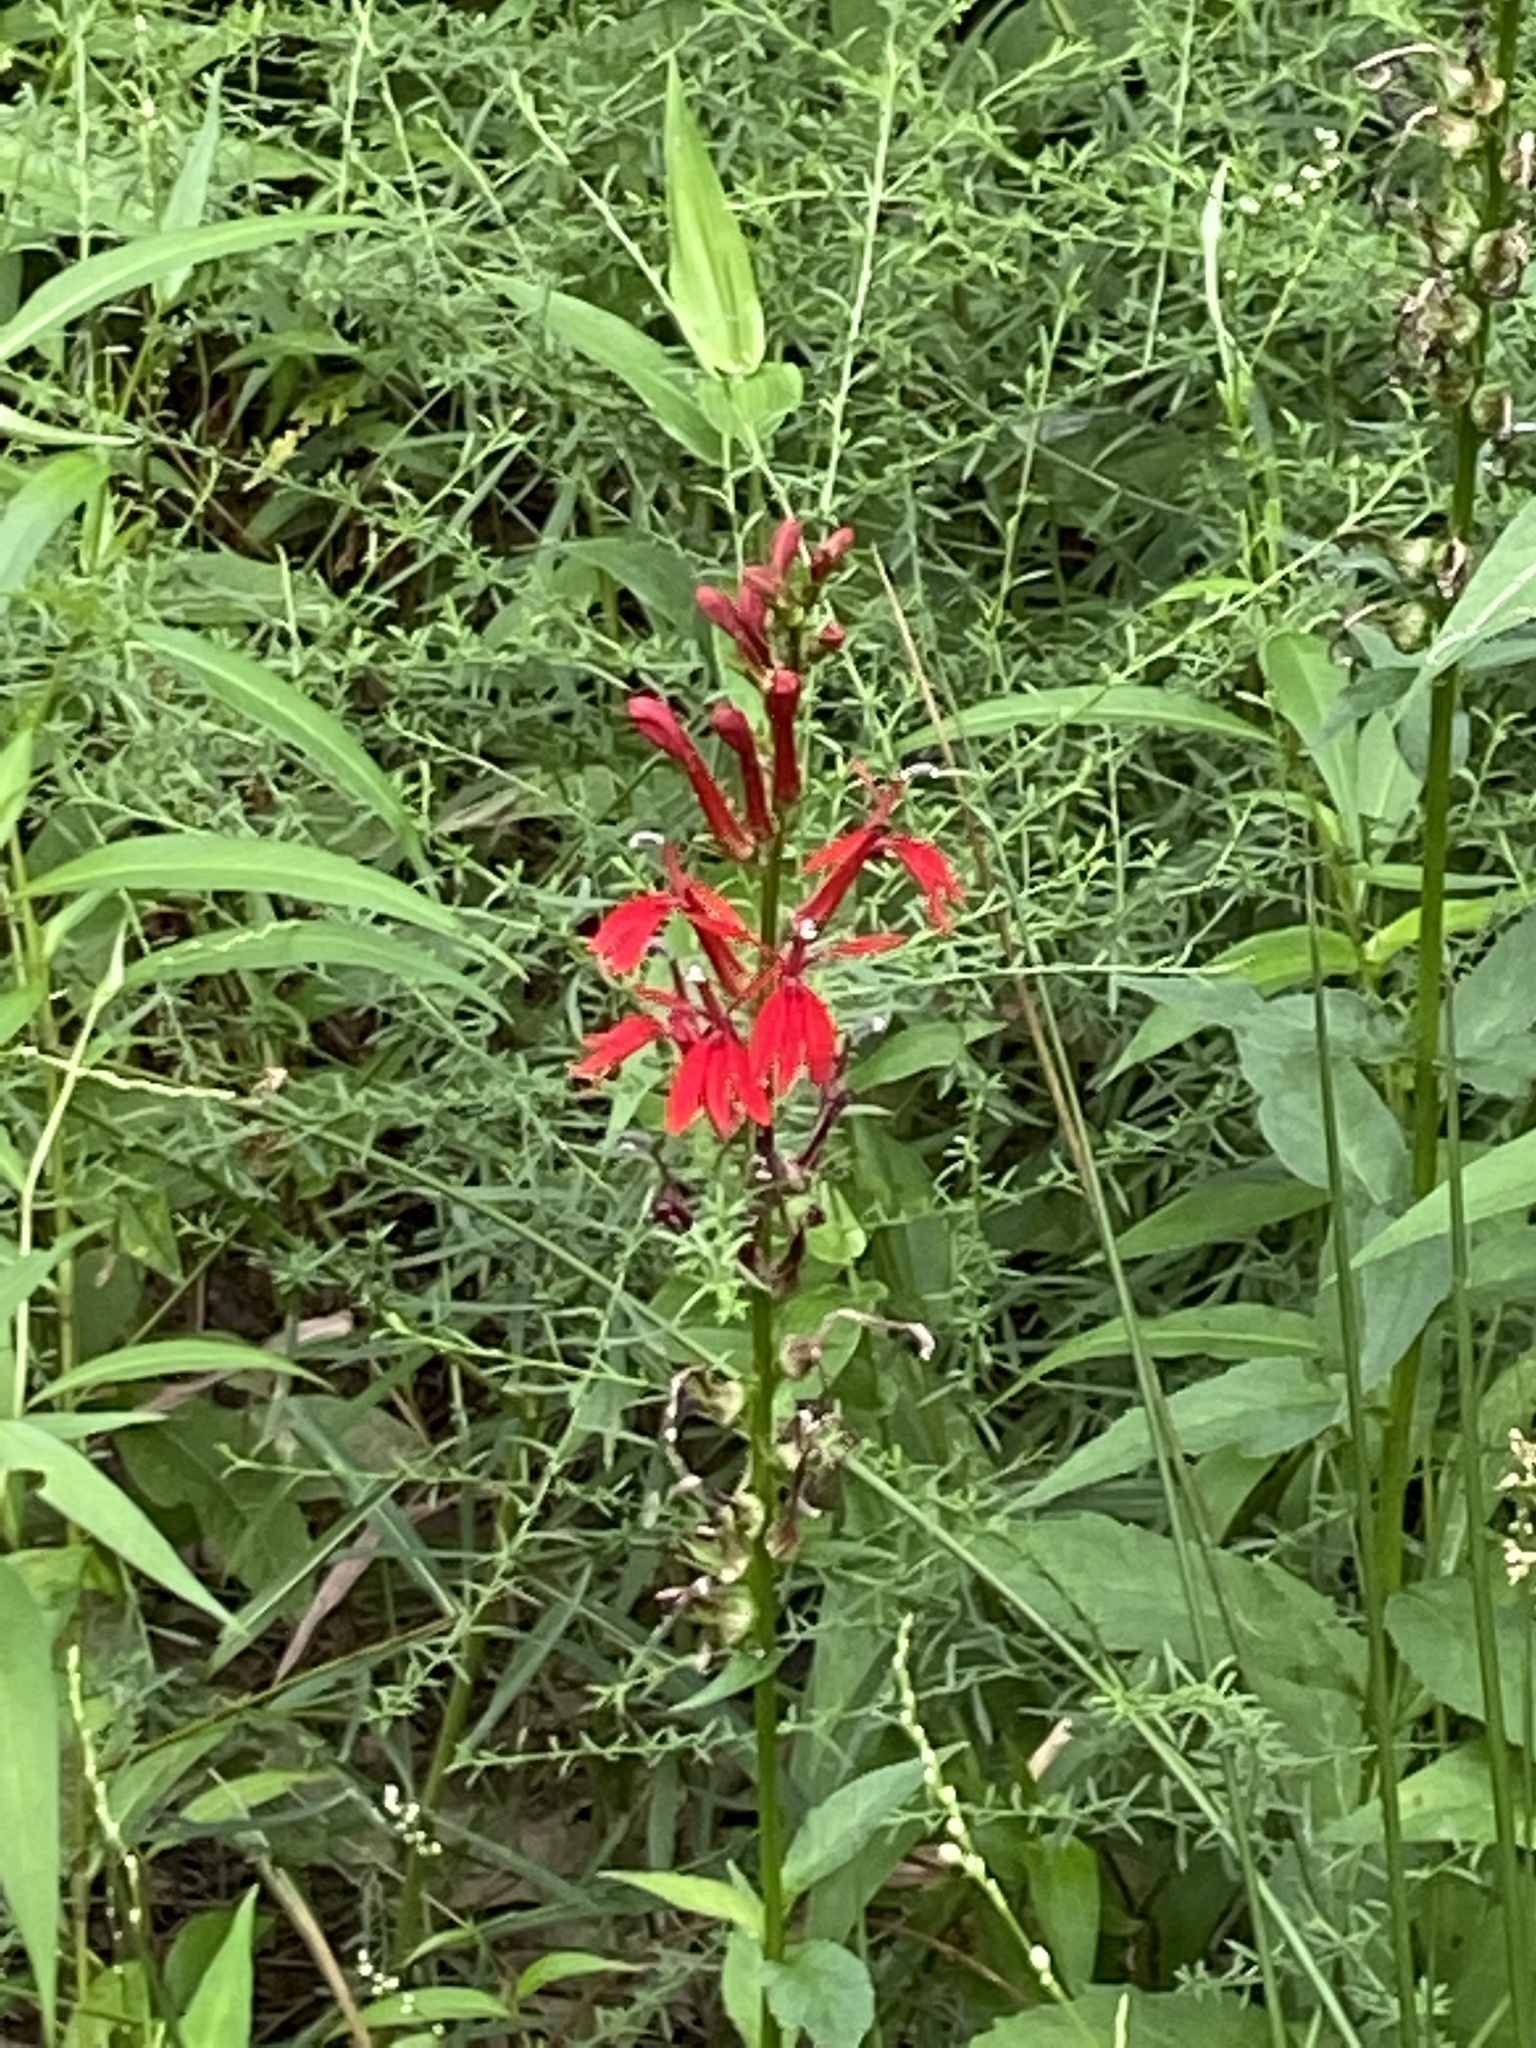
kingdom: Plantae
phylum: Tracheophyta
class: Magnoliopsida
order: Asterales
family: Campanulaceae
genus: Lobelia
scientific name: Lobelia cardinalis
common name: Cardinal flower
